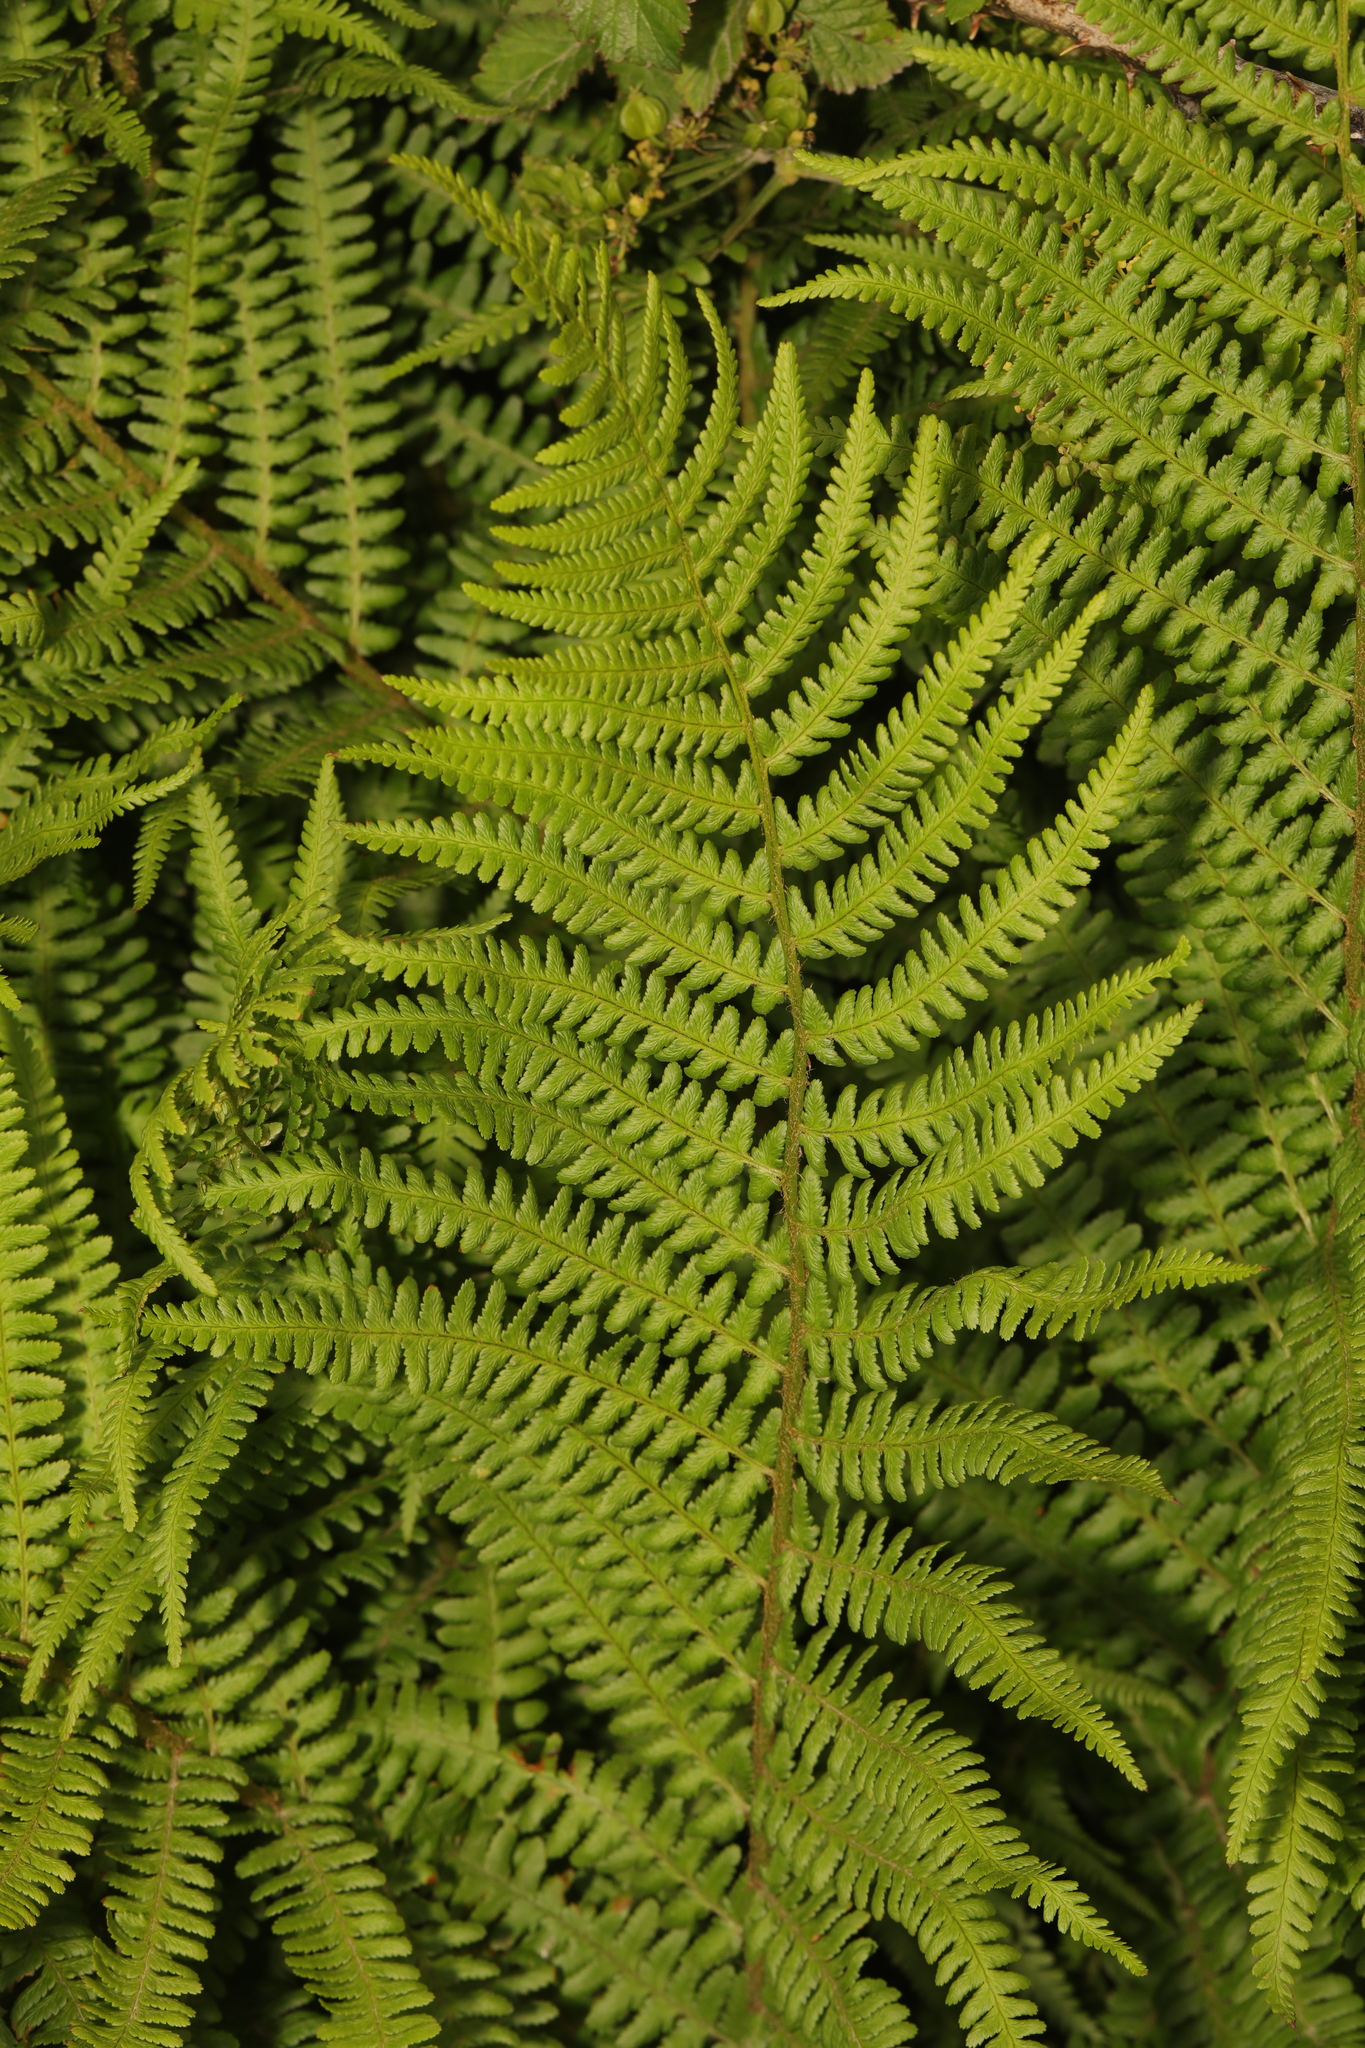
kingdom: Plantae
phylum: Tracheophyta
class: Polypodiopsida
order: Polypodiales
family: Dryopteridaceae
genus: Dryopteris
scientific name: Dryopteris filix-mas
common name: Male fern
